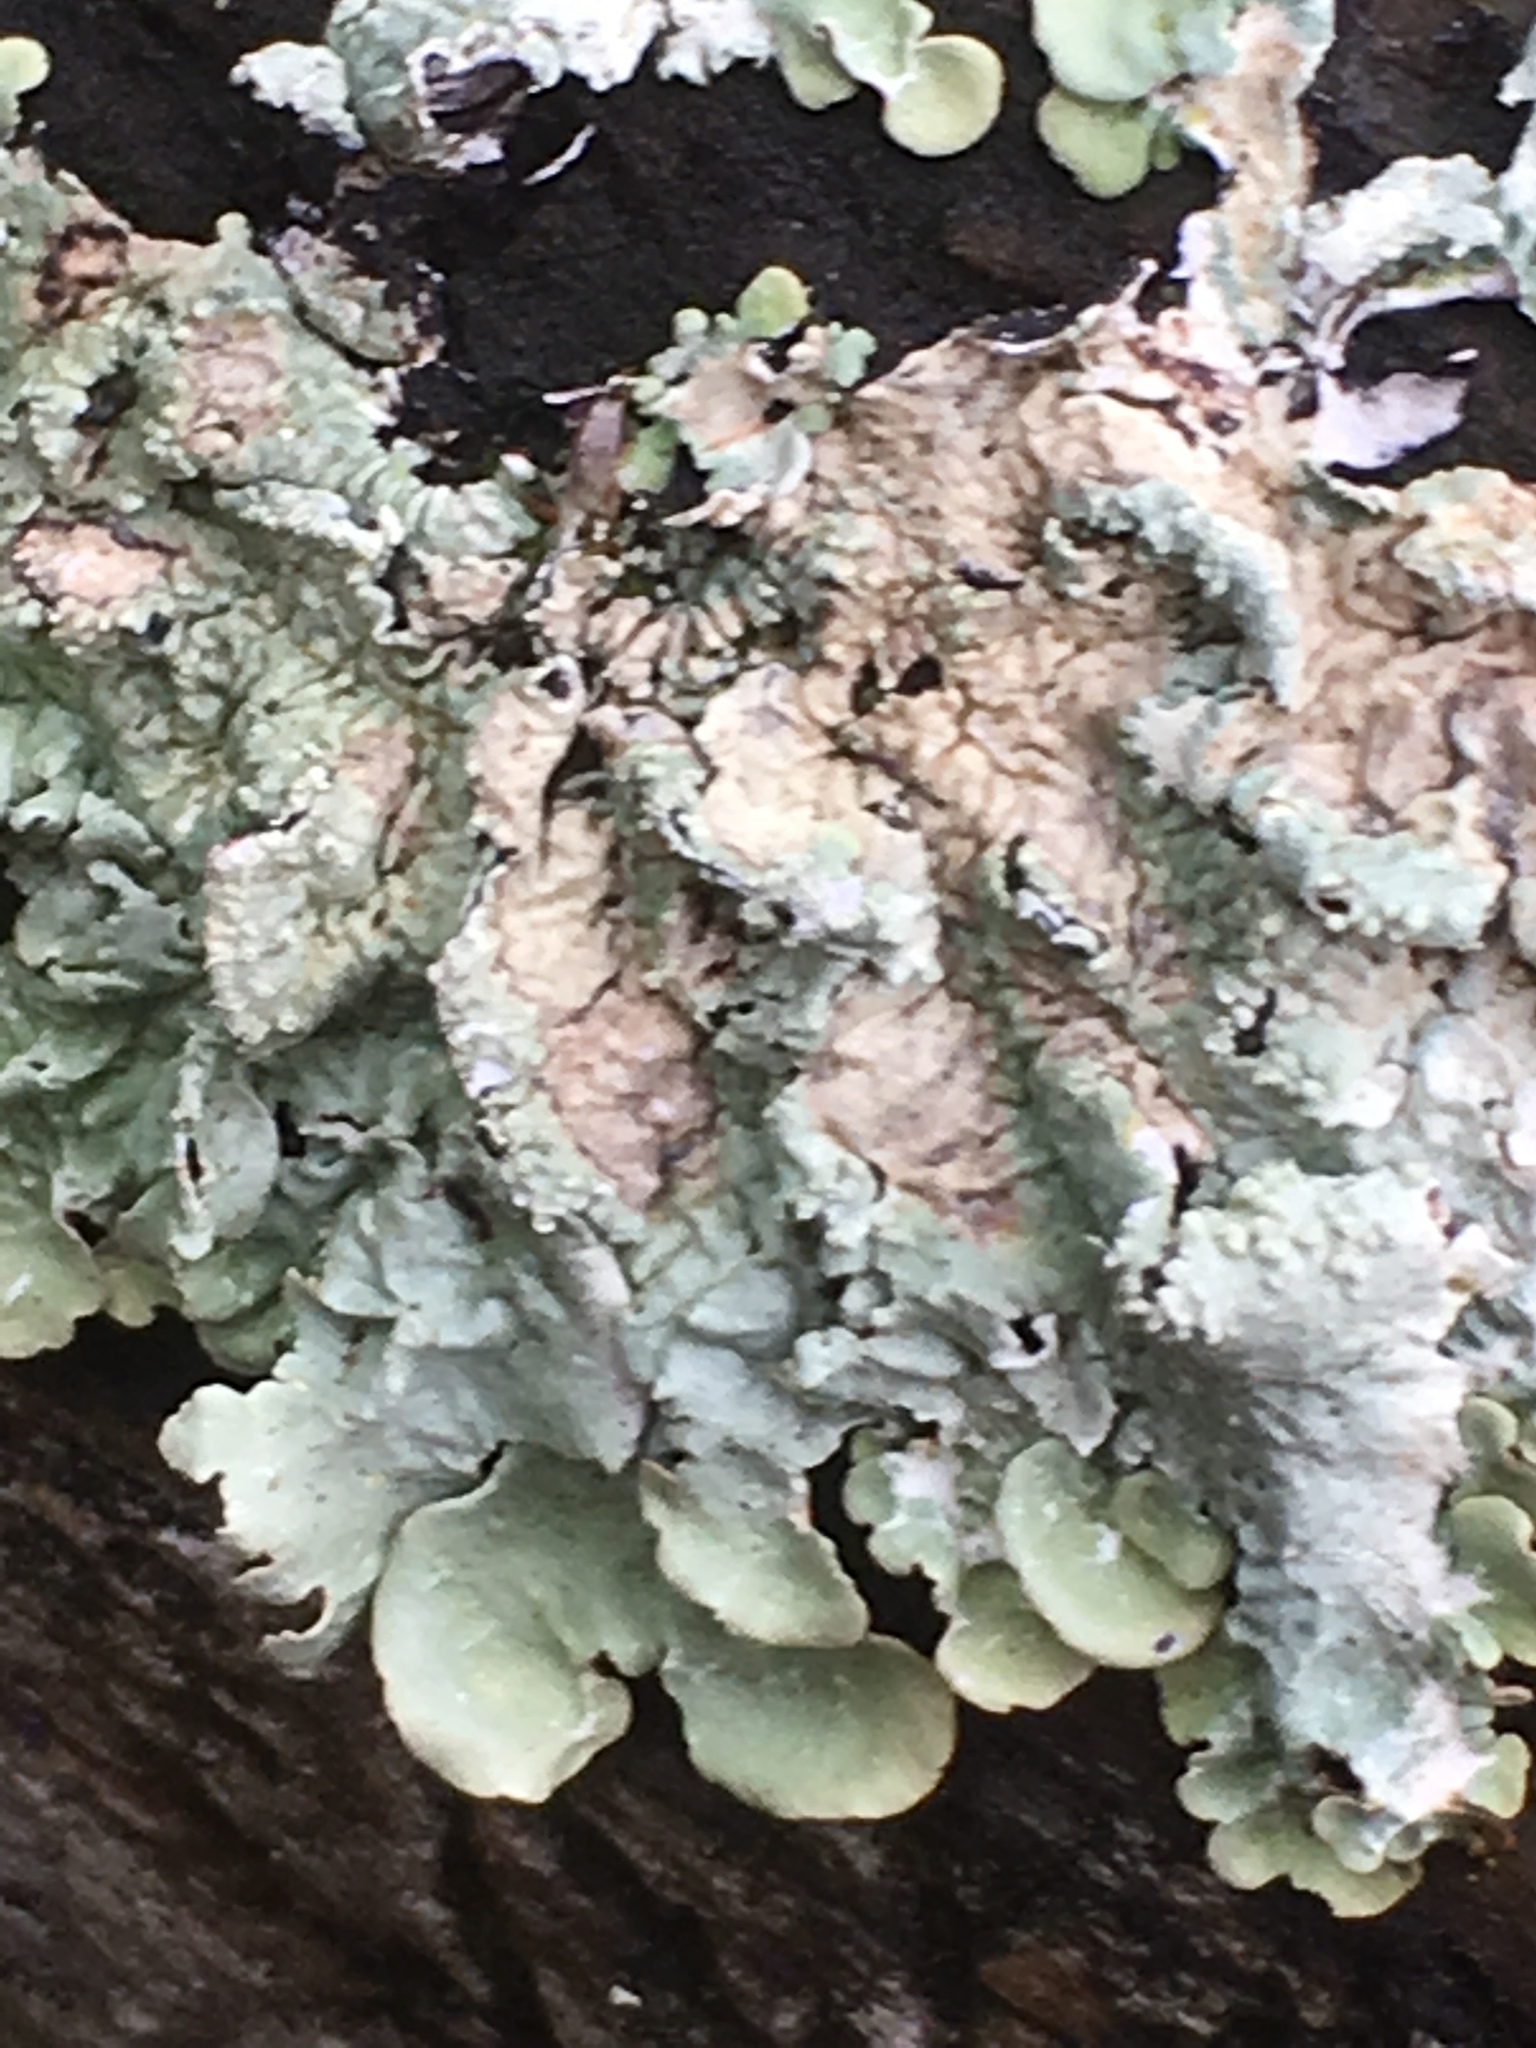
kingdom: Fungi
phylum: Ascomycota
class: Lecanoromycetes
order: Lecanorales
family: Parmeliaceae
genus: Flavoparmelia
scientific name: Flavoparmelia caperata
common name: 40-mile per hour lichen
